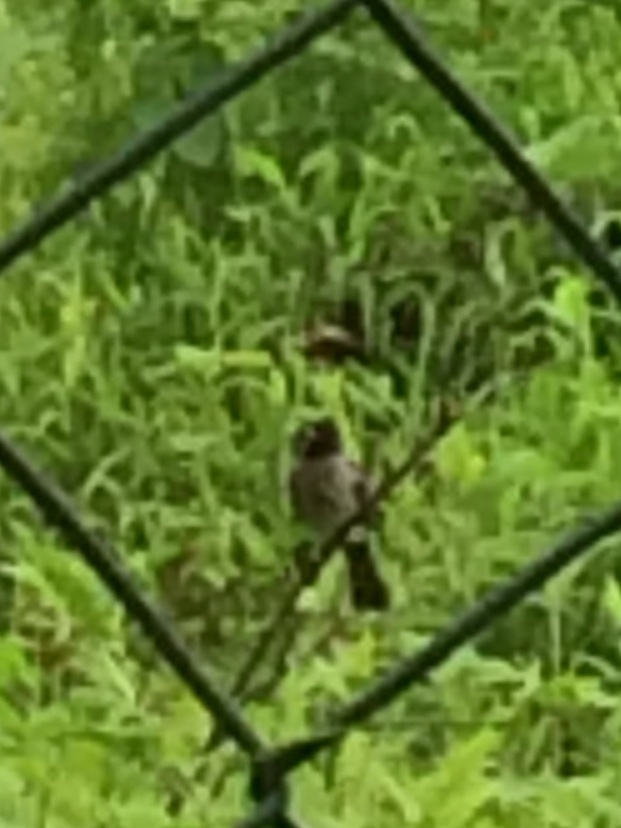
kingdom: Animalia
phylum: Chordata
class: Aves
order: Passeriformes
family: Pycnonotidae
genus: Pycnonotus
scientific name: Pycnonotus cafer
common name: Red-vented bulbul
